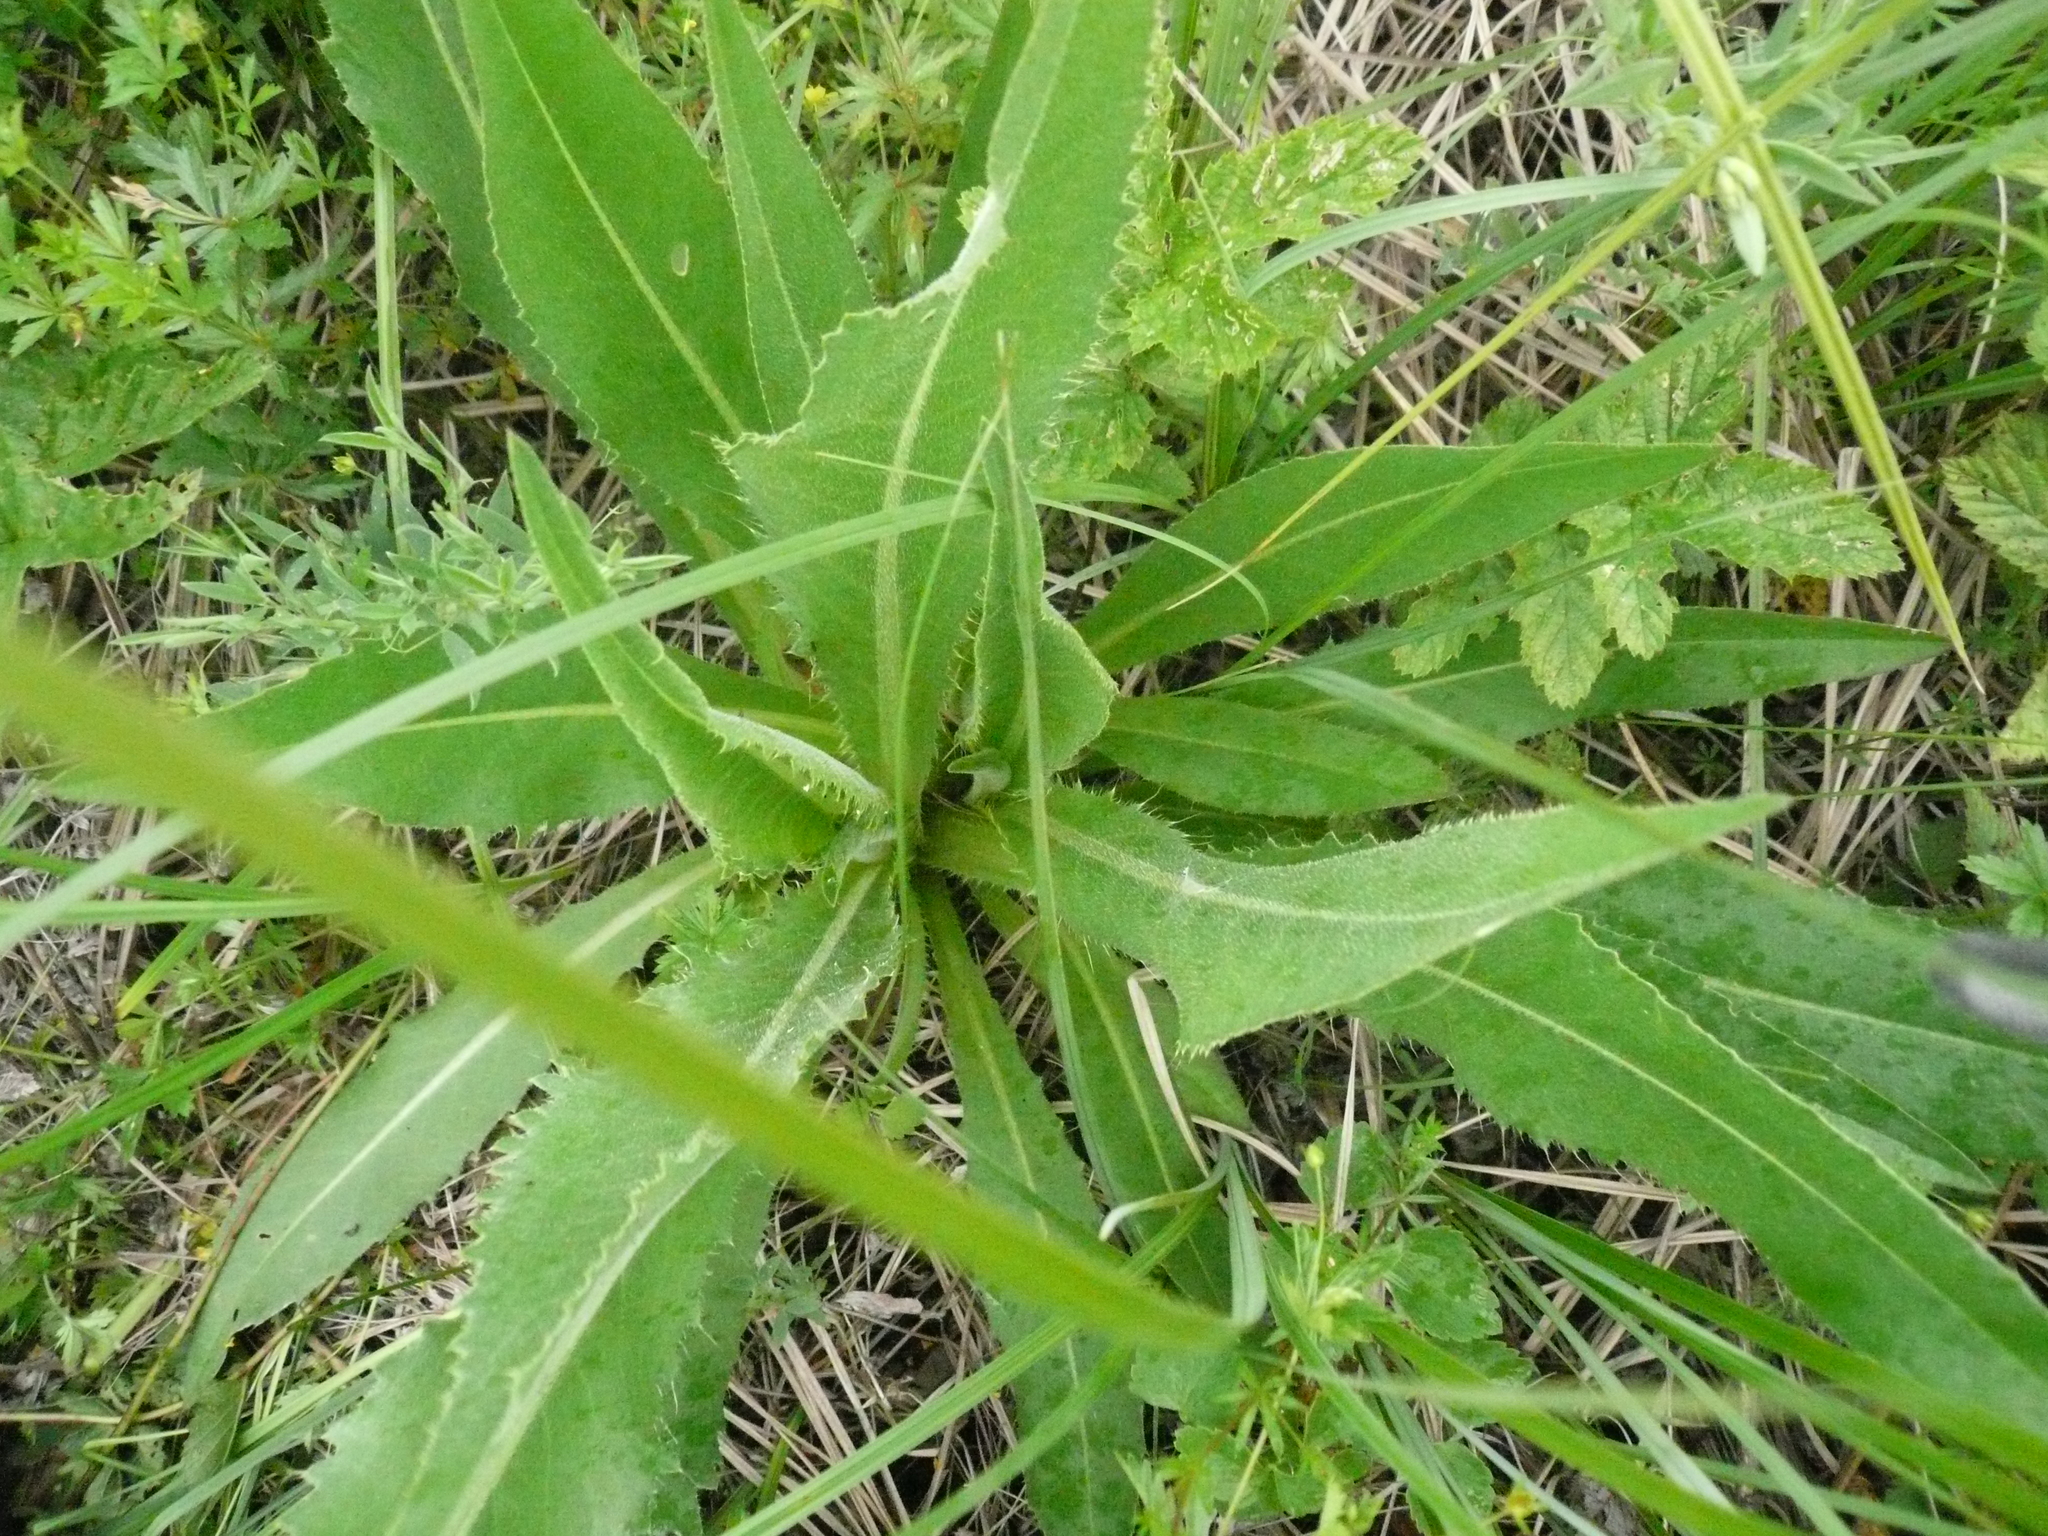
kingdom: Plantae
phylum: Tracheophyta
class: Magnoliopsida
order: Asterales
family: Asteraceae
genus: Cirsium
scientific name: Cirsium canum
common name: Queen anne's thistle
